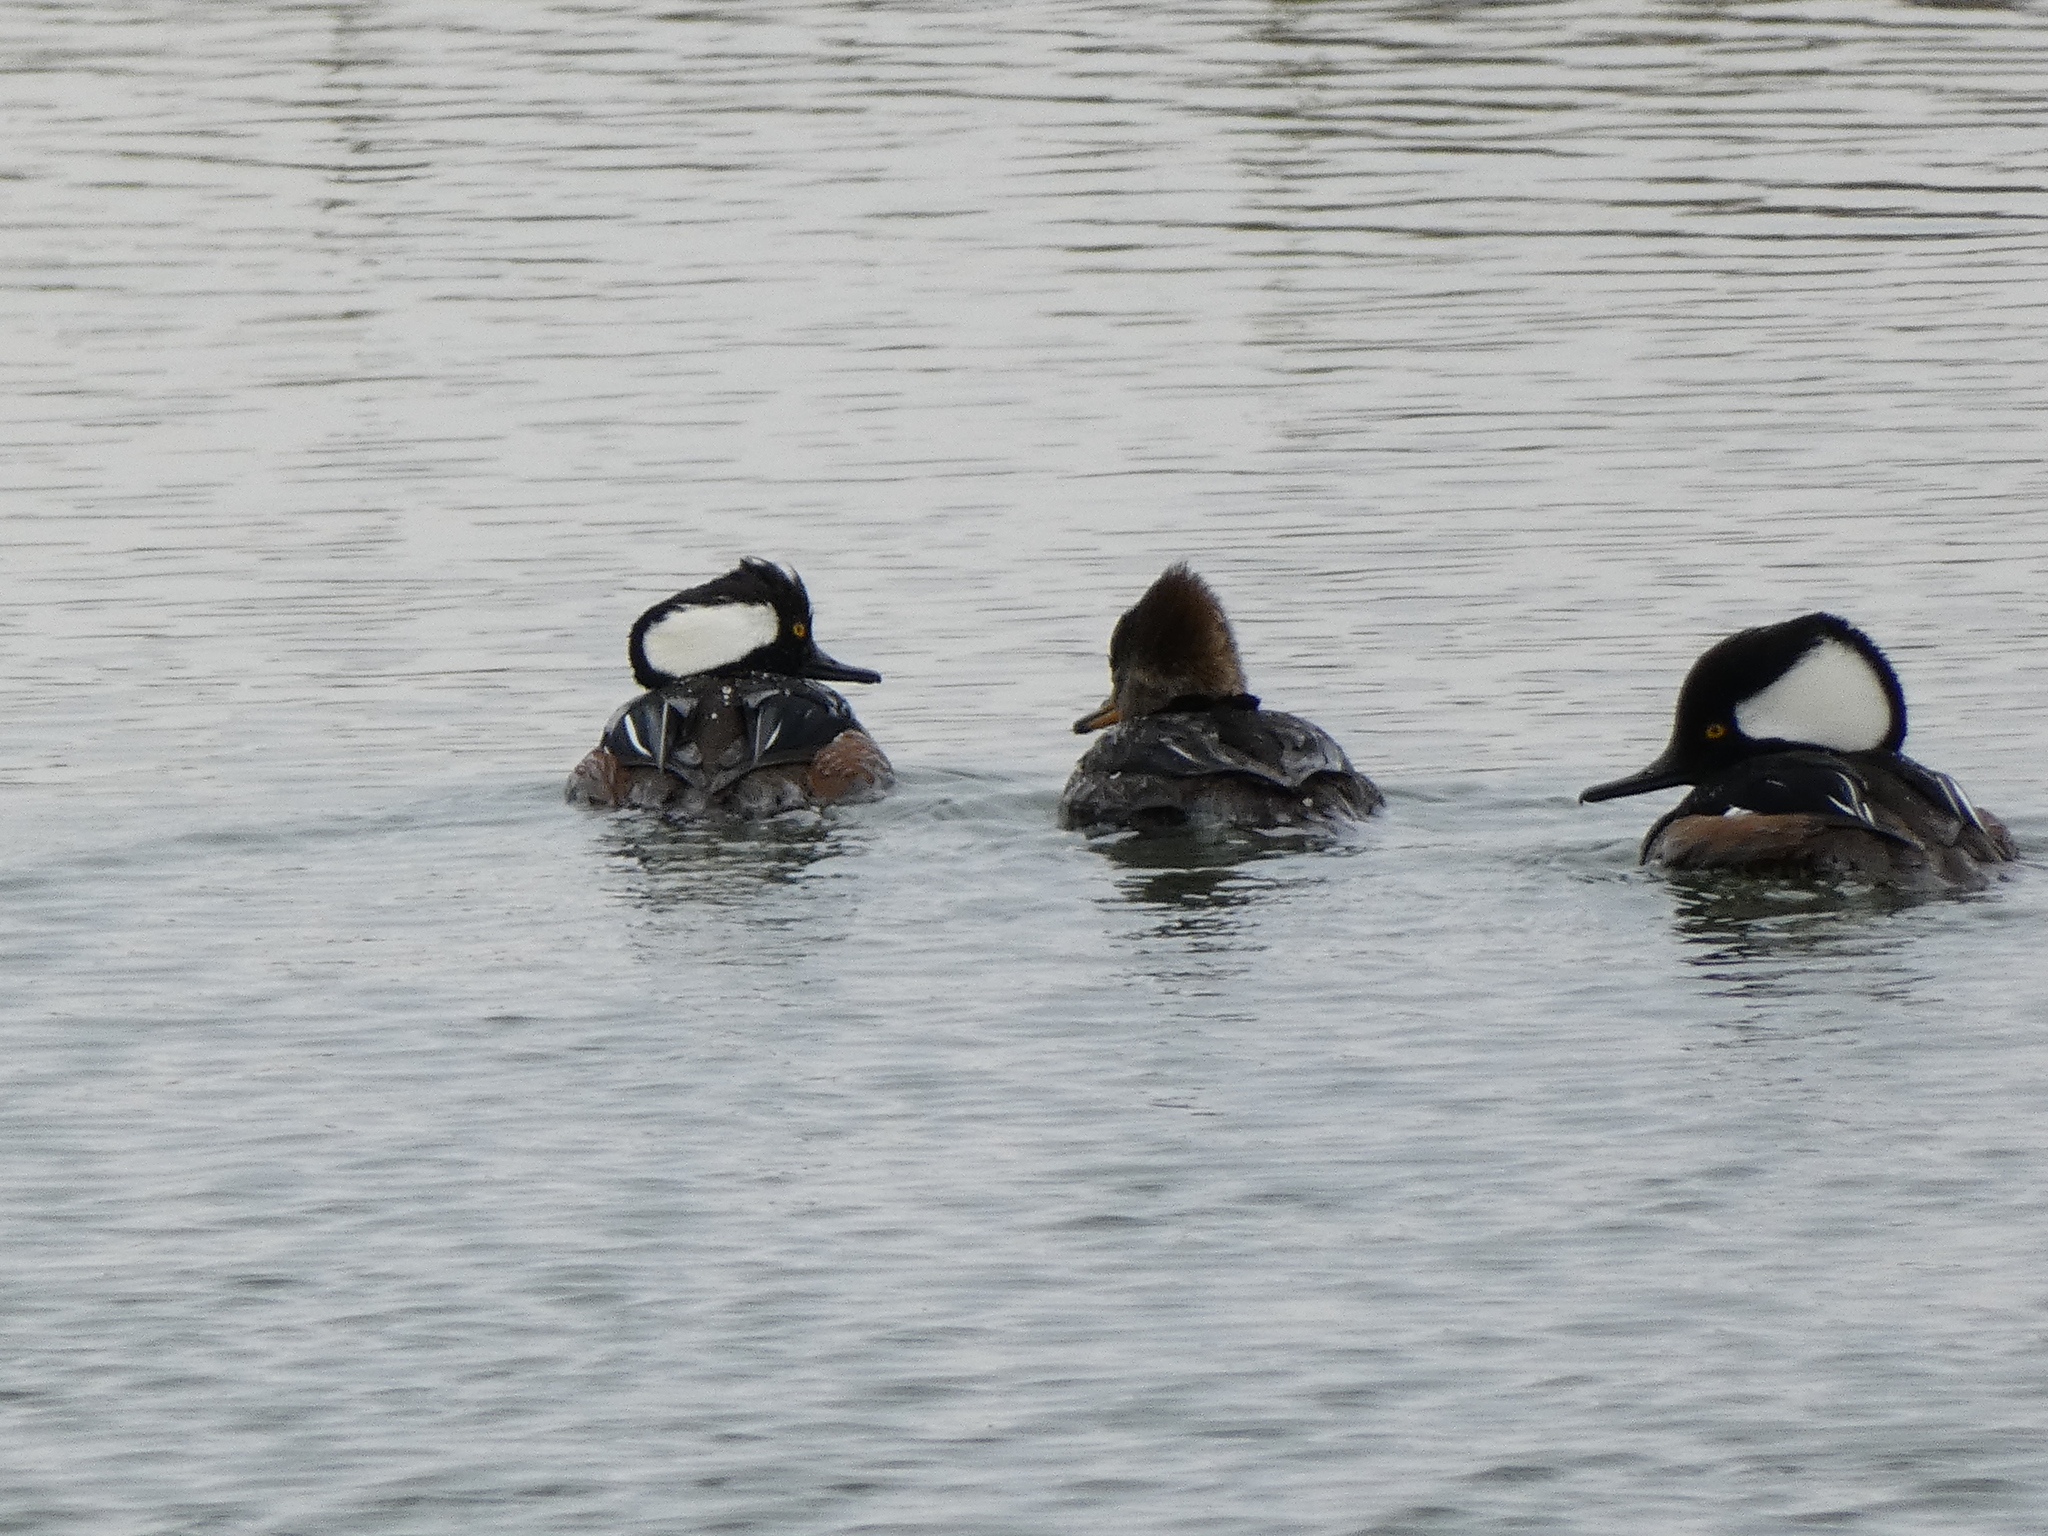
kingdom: Animalia
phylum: Chordata
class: Aves
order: Anseriformes
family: Anatidae
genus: Lophodytes
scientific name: Lophodytes cucullatus
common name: Hooded merganser
